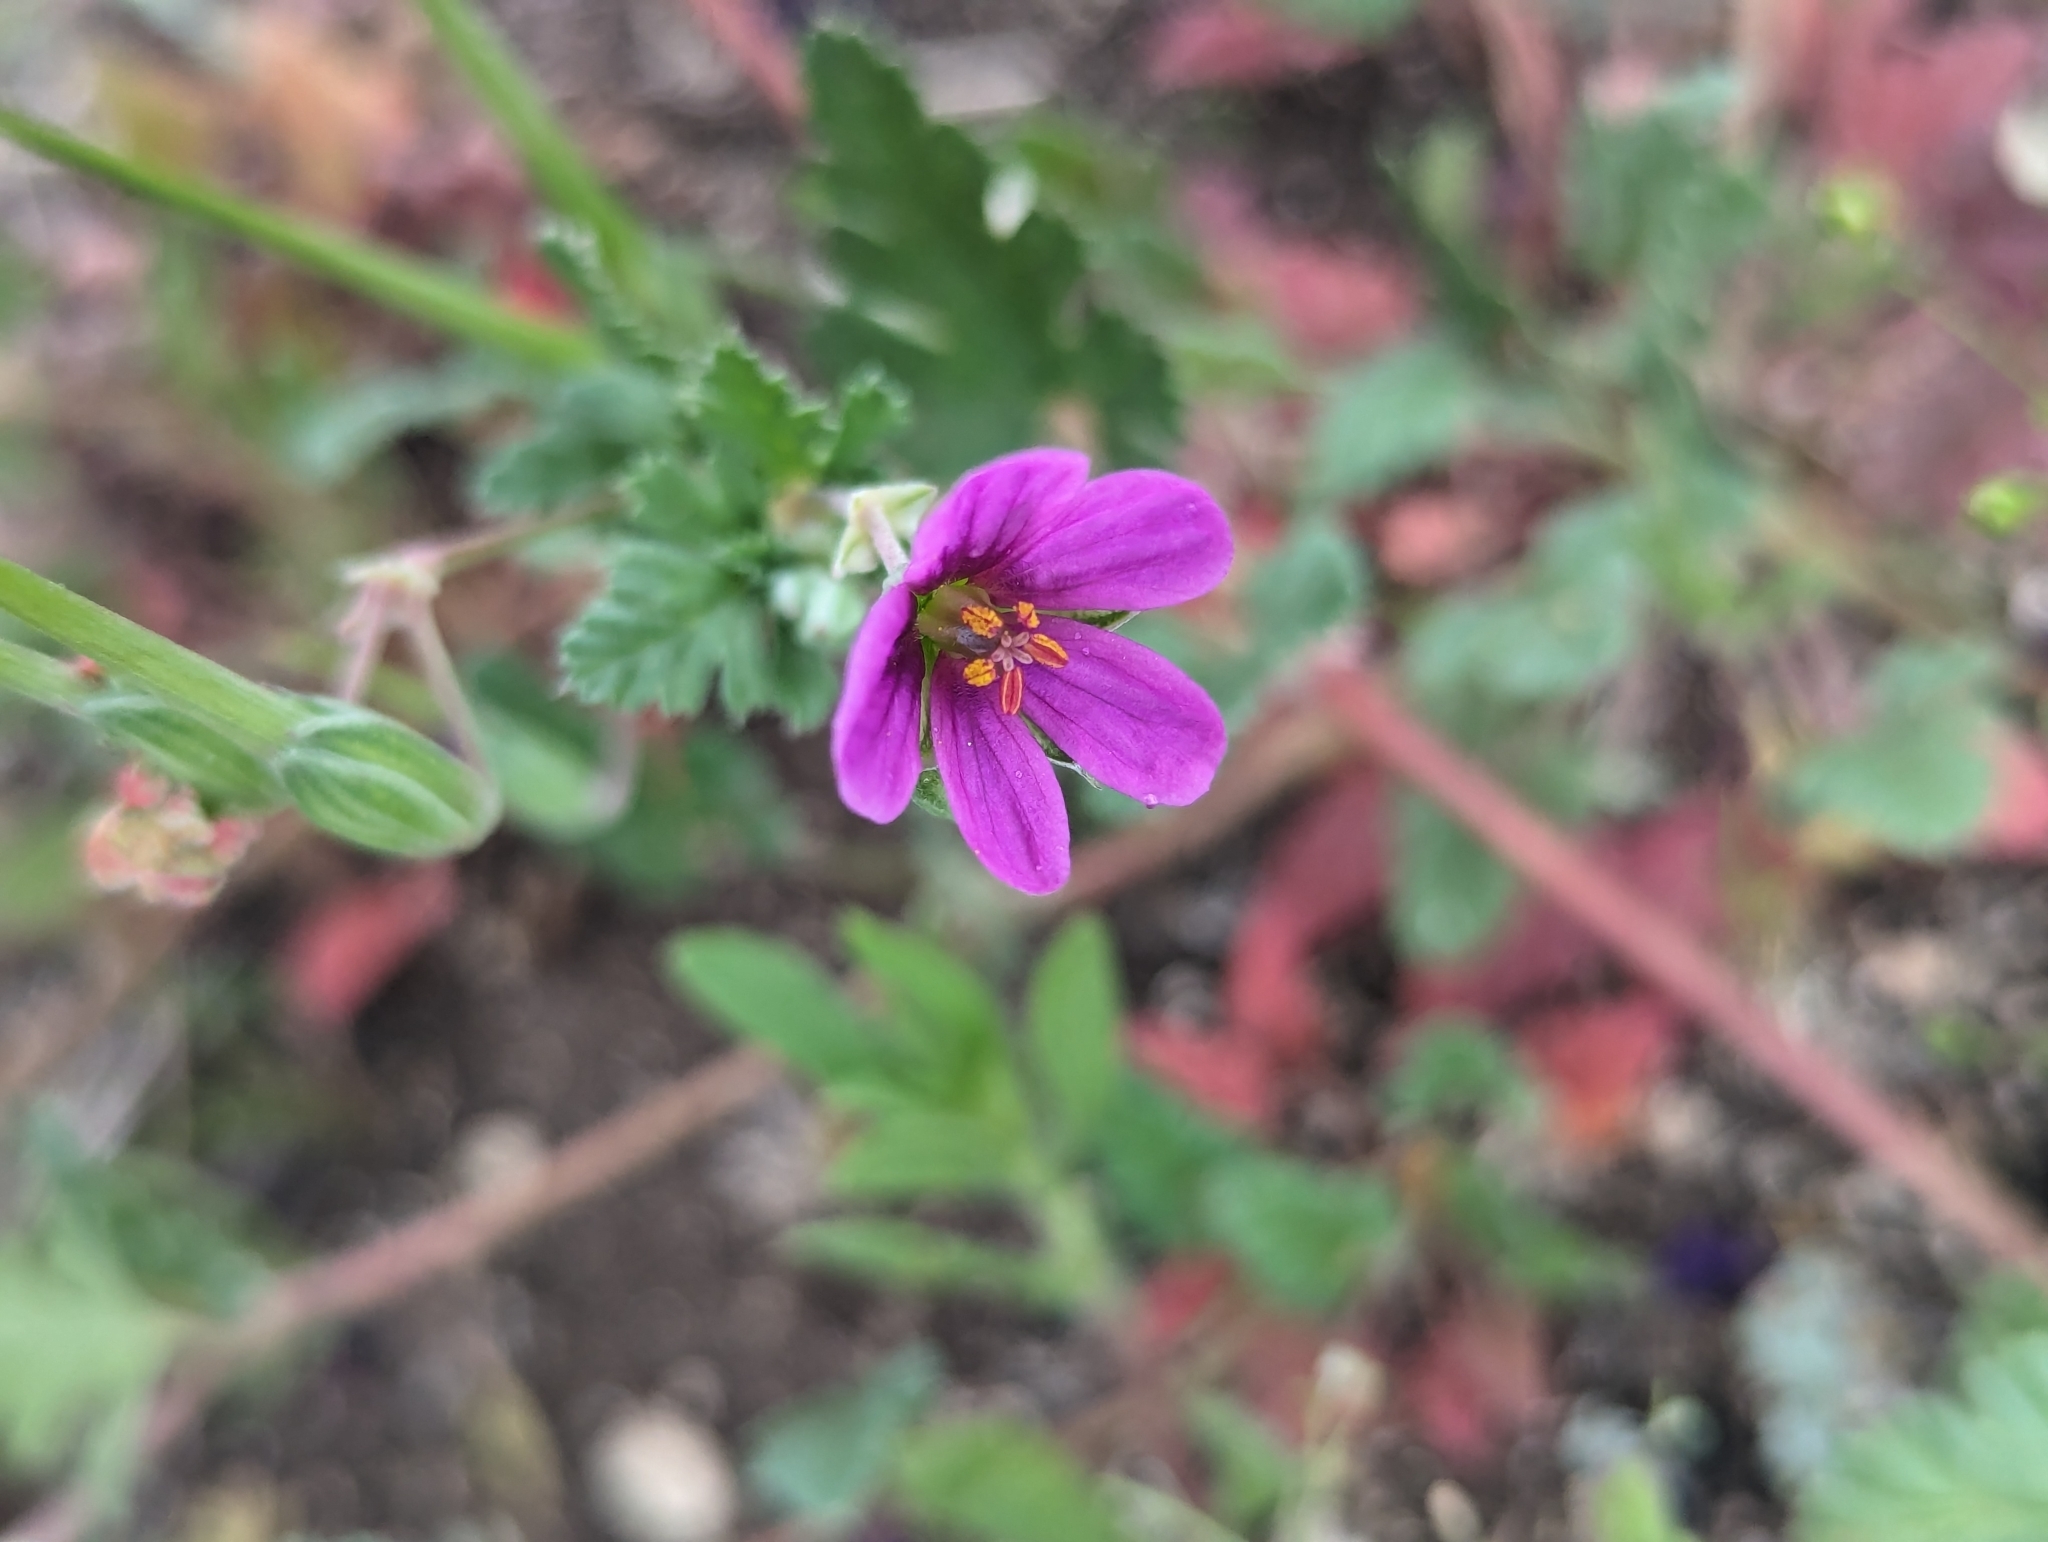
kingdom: Plantae
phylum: Tracheophyta
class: Magnoliopsida
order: Geraniales
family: Geraniaceae
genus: Erodium
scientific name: Erodium texanum
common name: Texas stork's-bill
